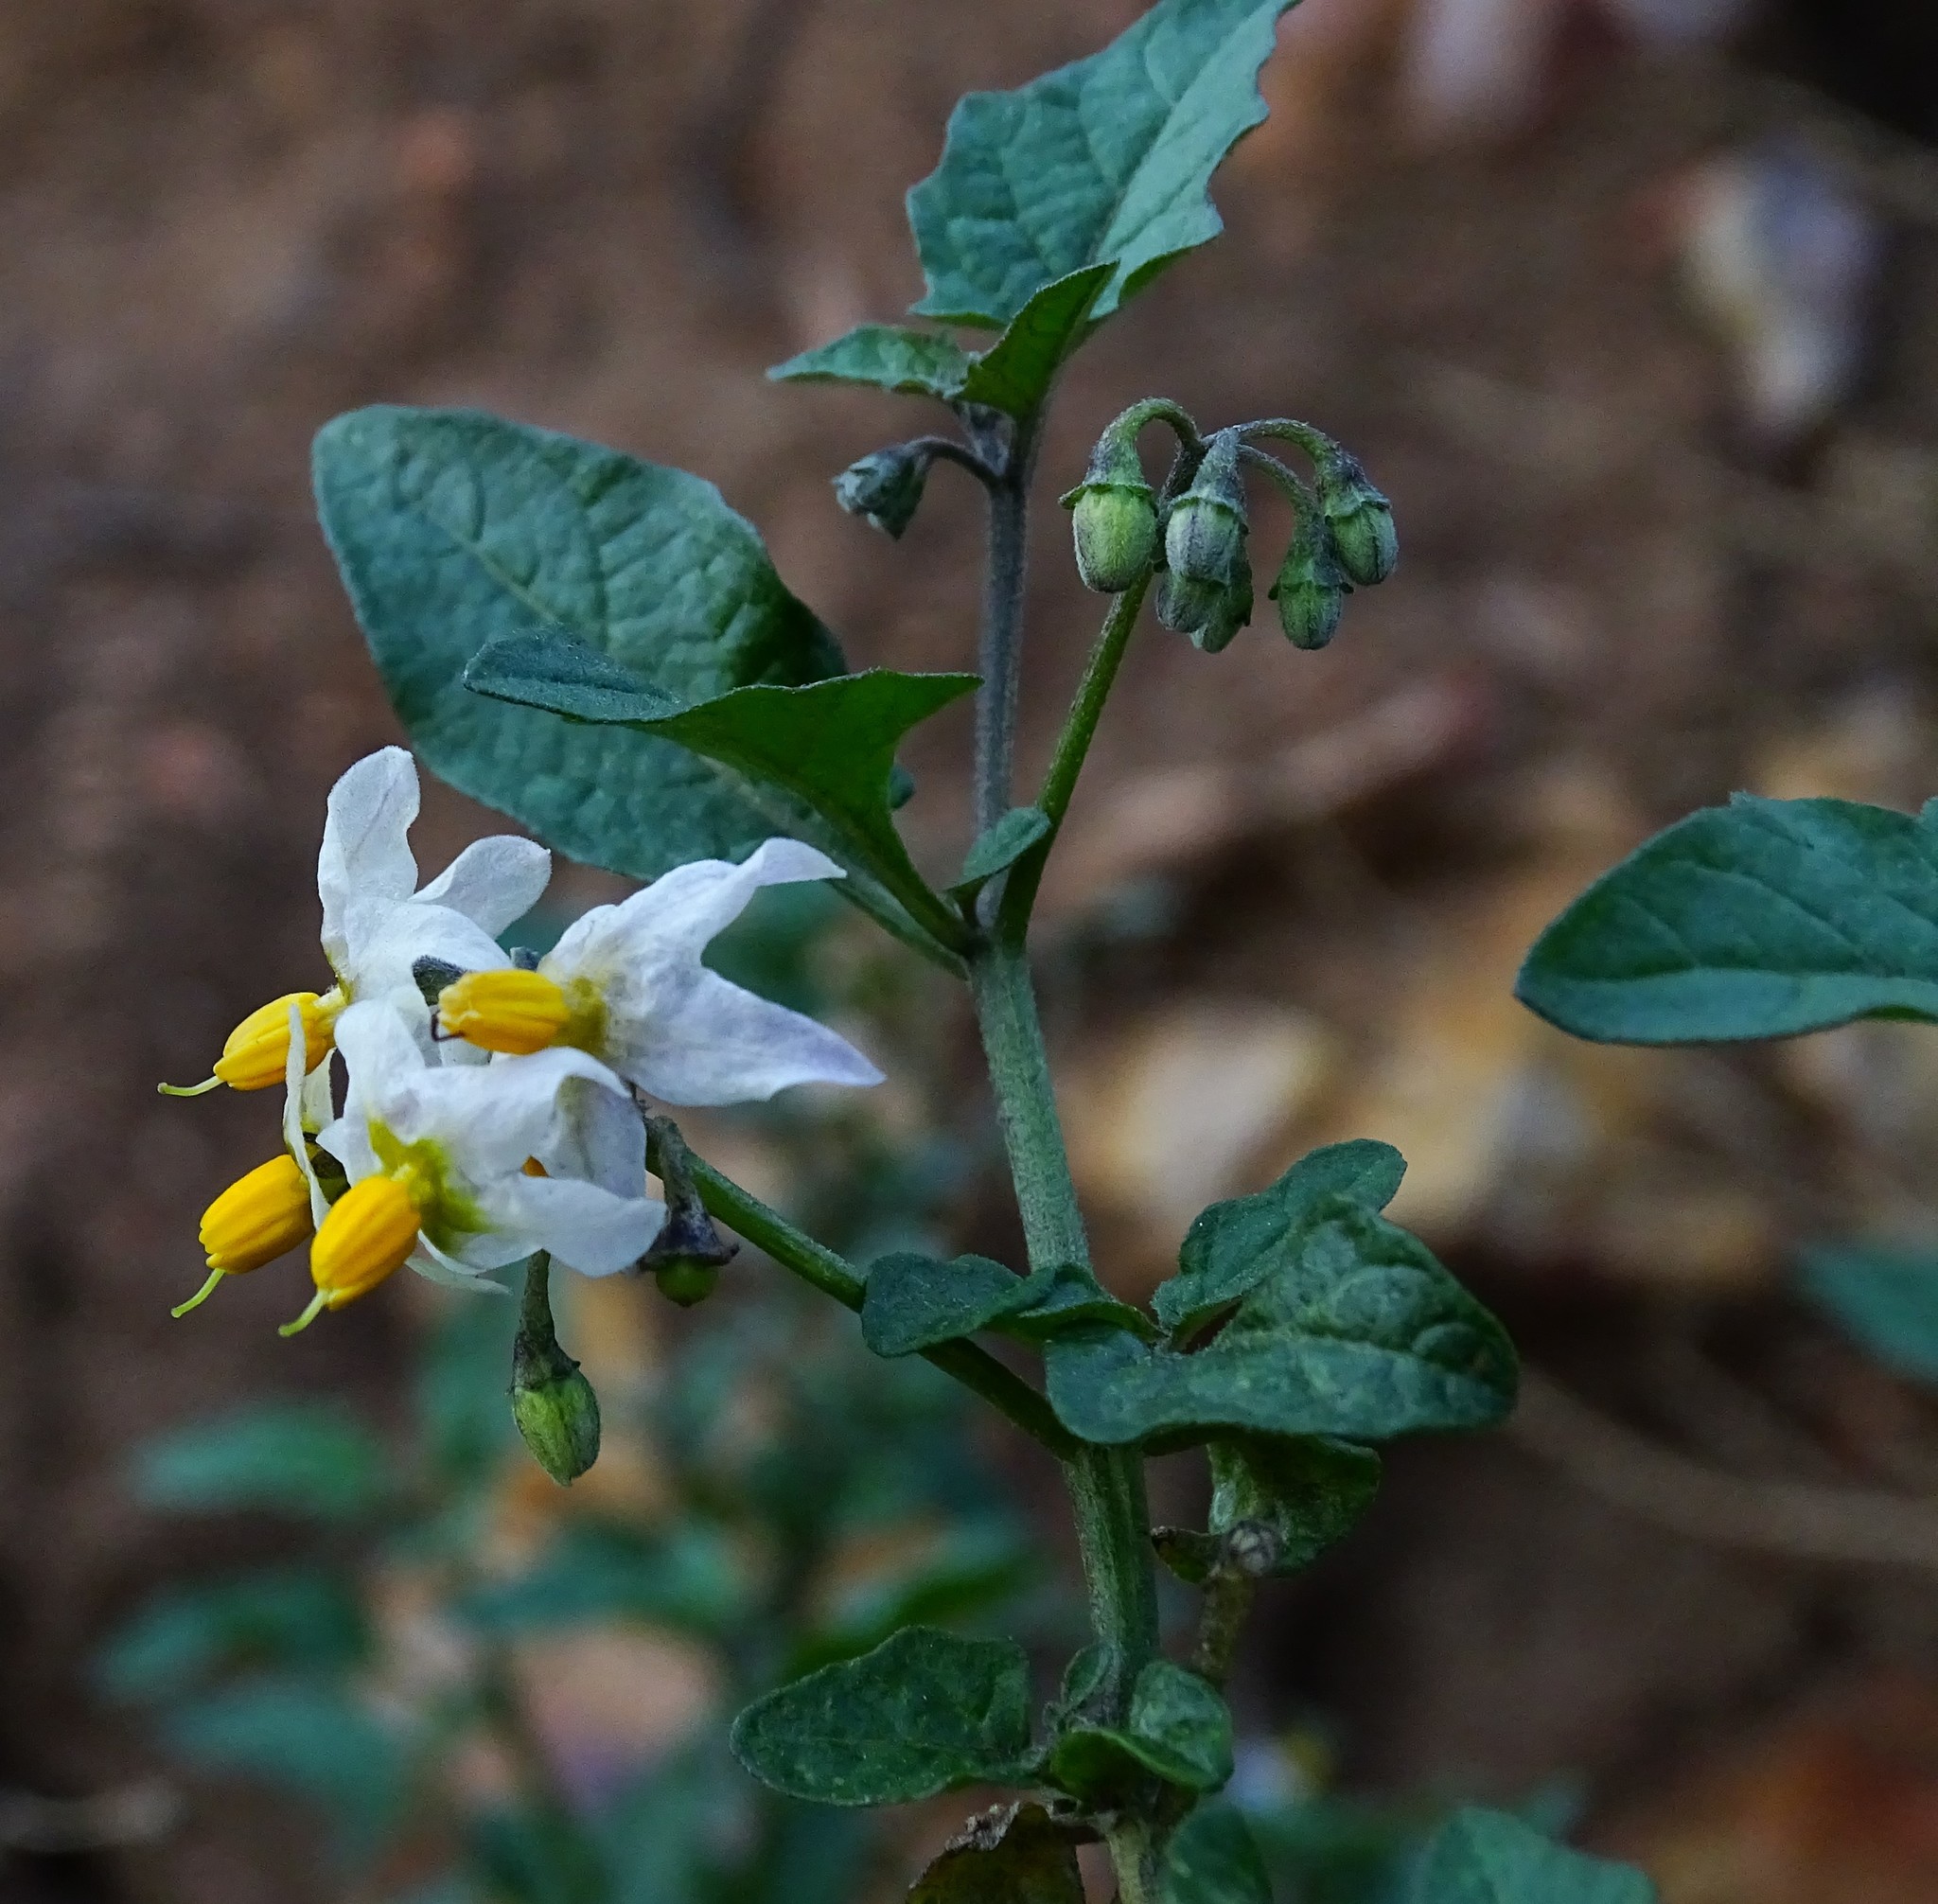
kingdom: Plantae
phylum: Tracheophyta
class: Magnoliopsida
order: Solanales
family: Solanaceae
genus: Solanum
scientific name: Solanum douglasii
